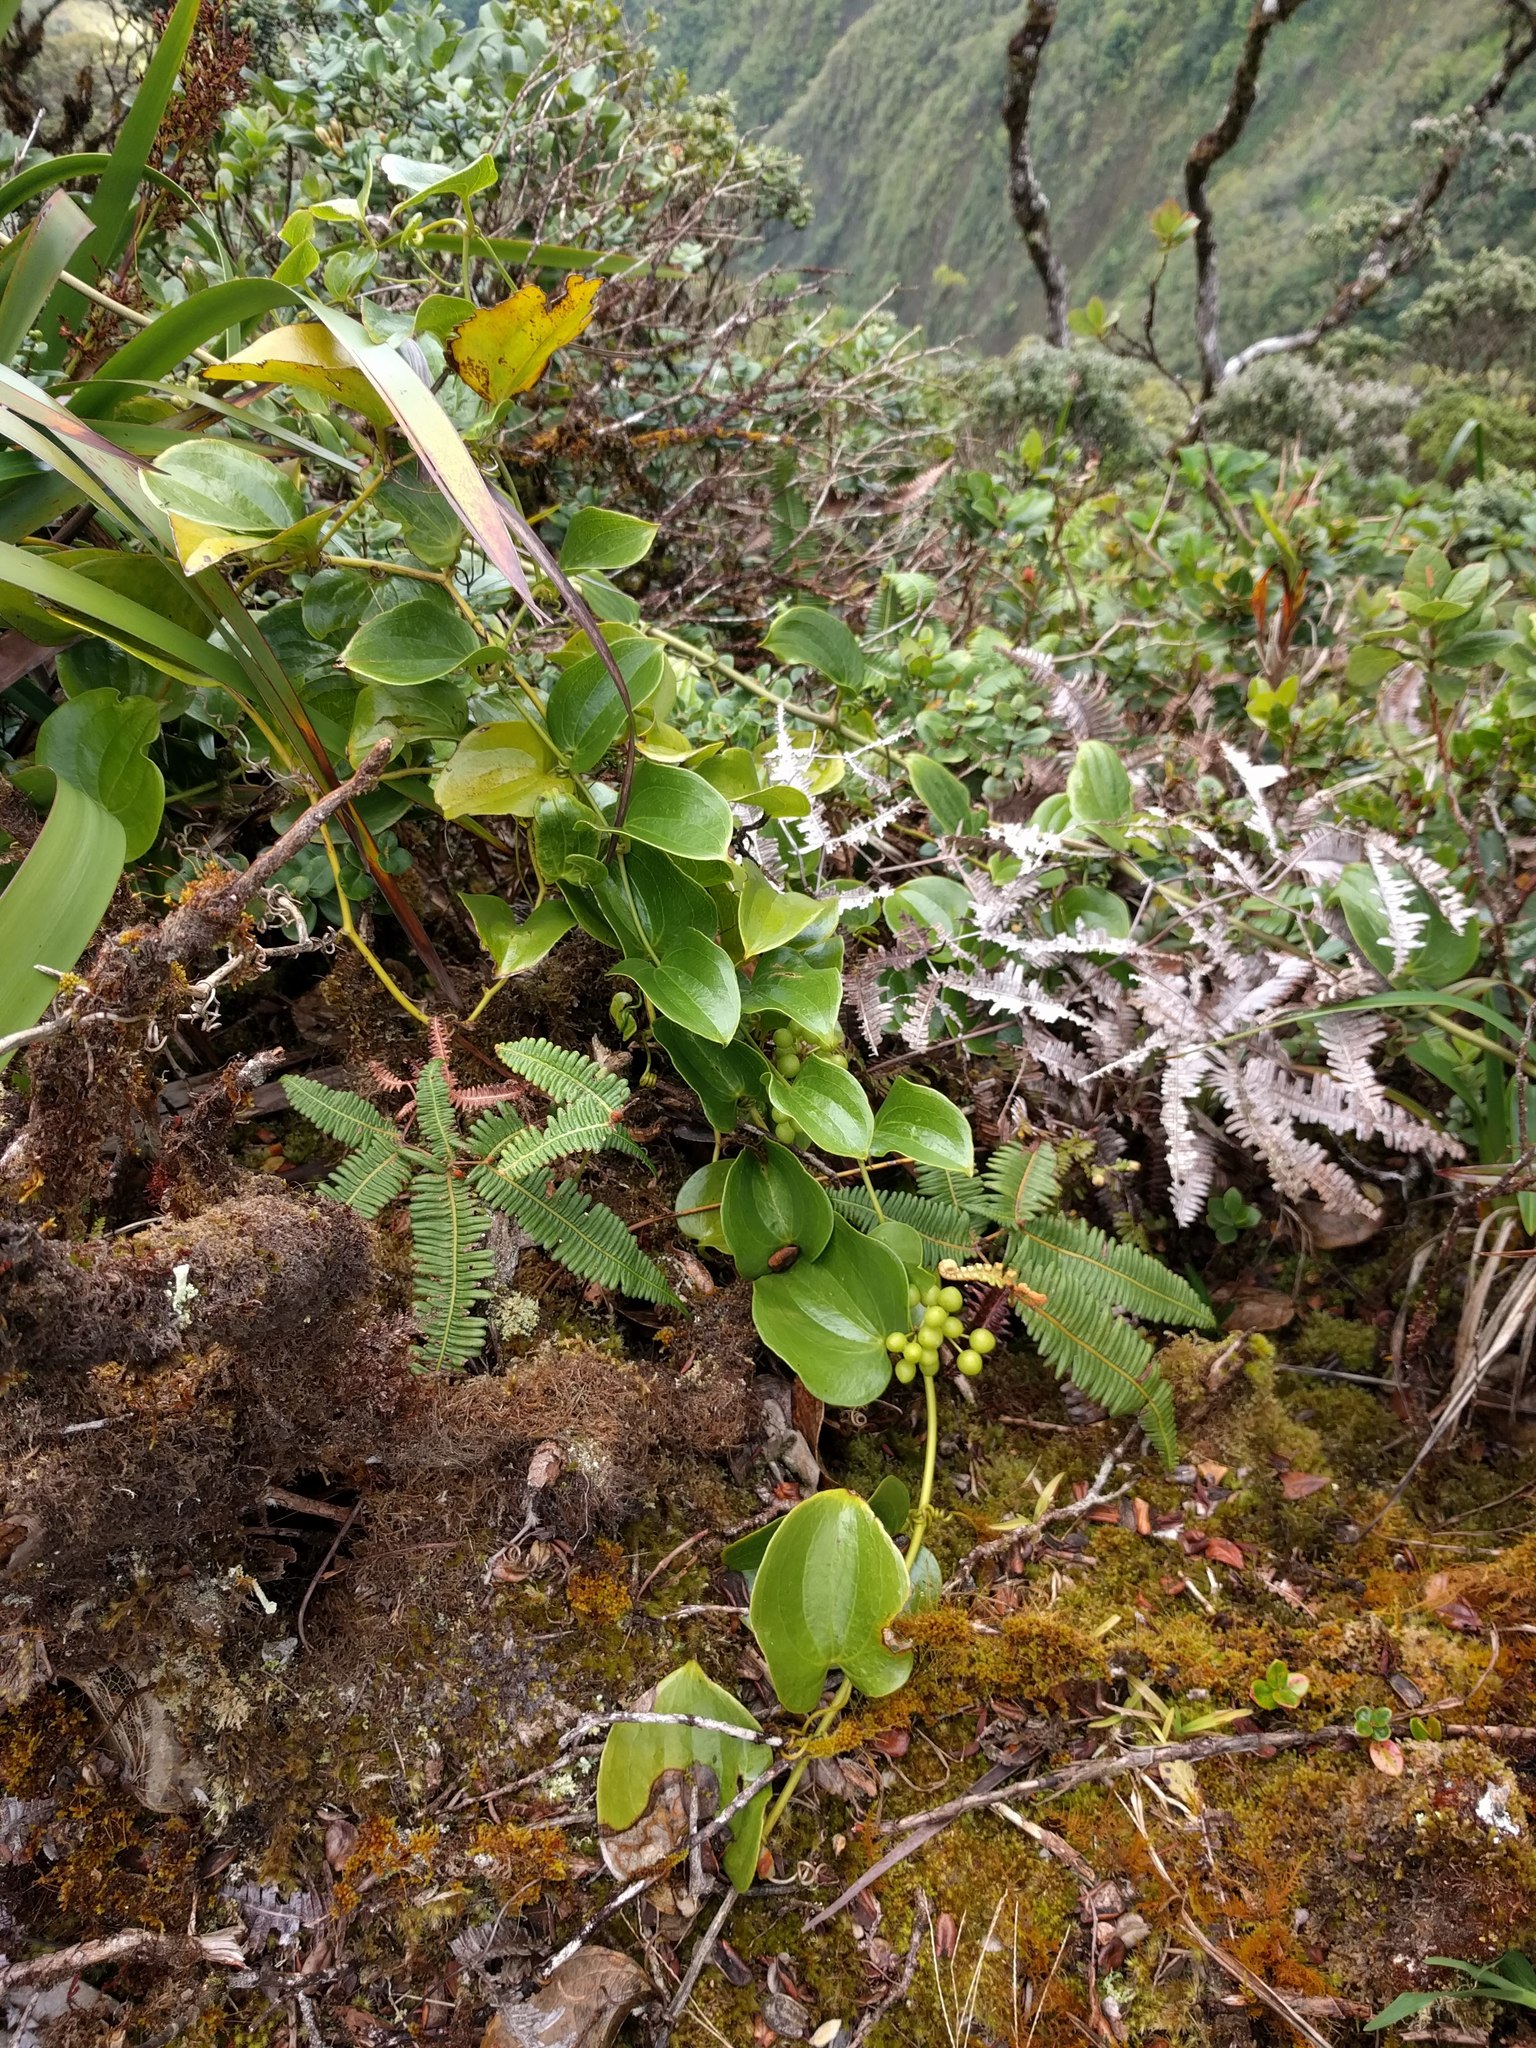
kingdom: Plantae
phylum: Tracheophyta
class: Liliopsida
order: Liliales
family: Smilacaceae
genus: Smilax
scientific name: Smilax melastomifolia
